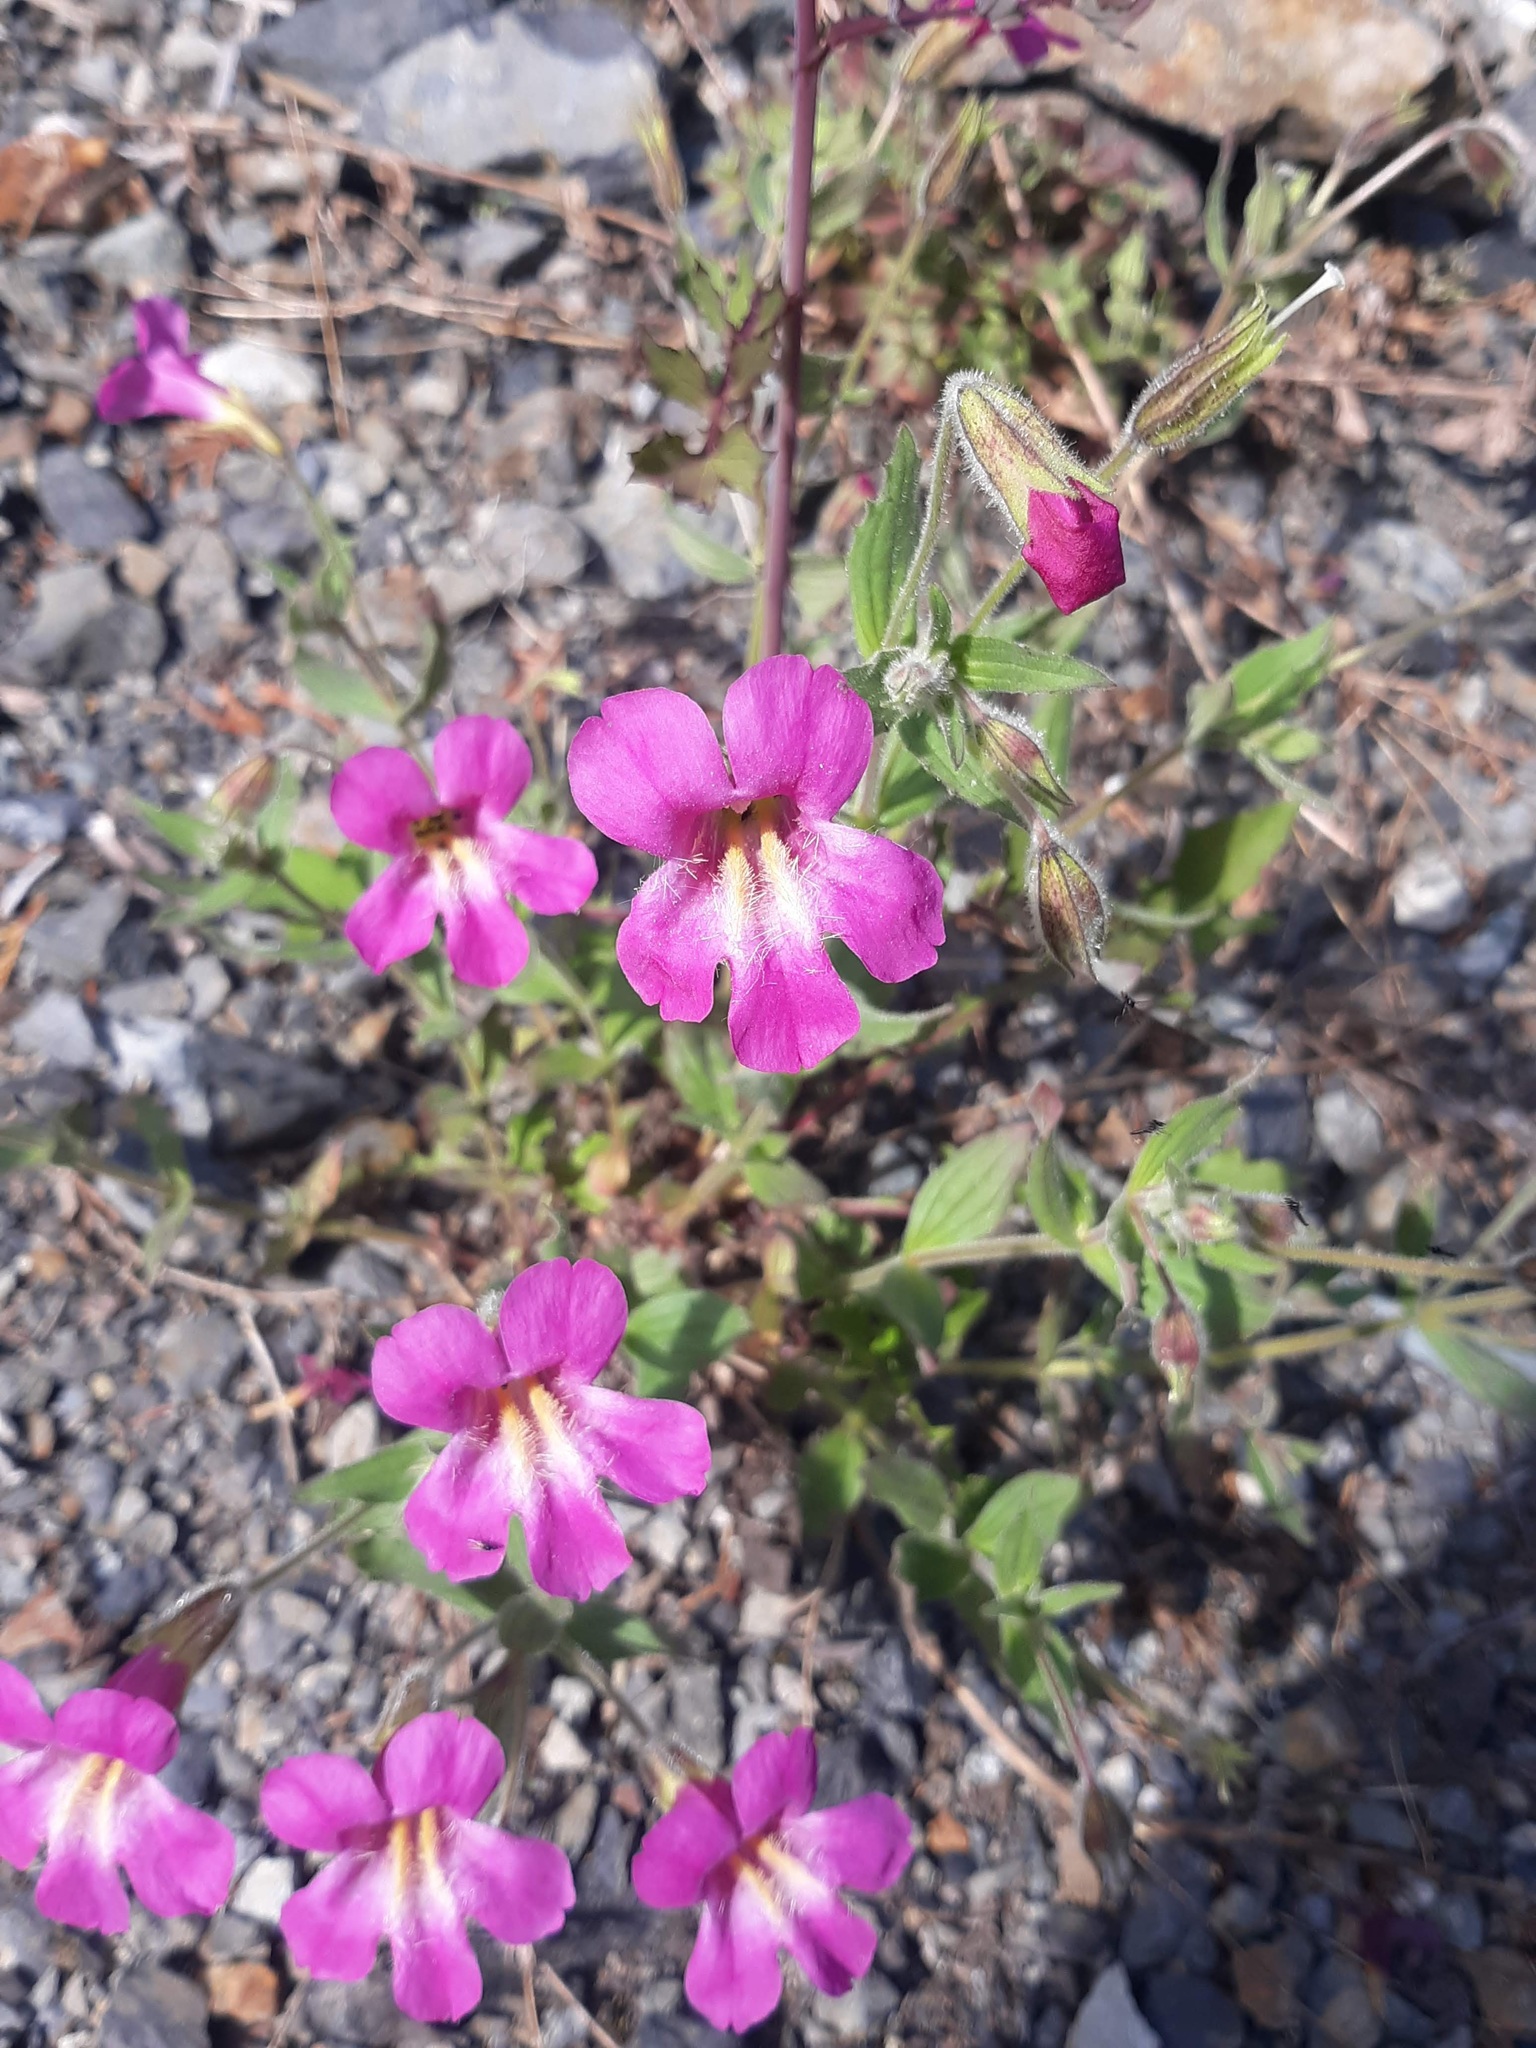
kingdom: Plantae
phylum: Tracheophyta
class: Magnoliopsida
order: Lamiales
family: Phrymaceae
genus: Erythranthe
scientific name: Erythranthe lewisii
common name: Lewis's monkey-flower
